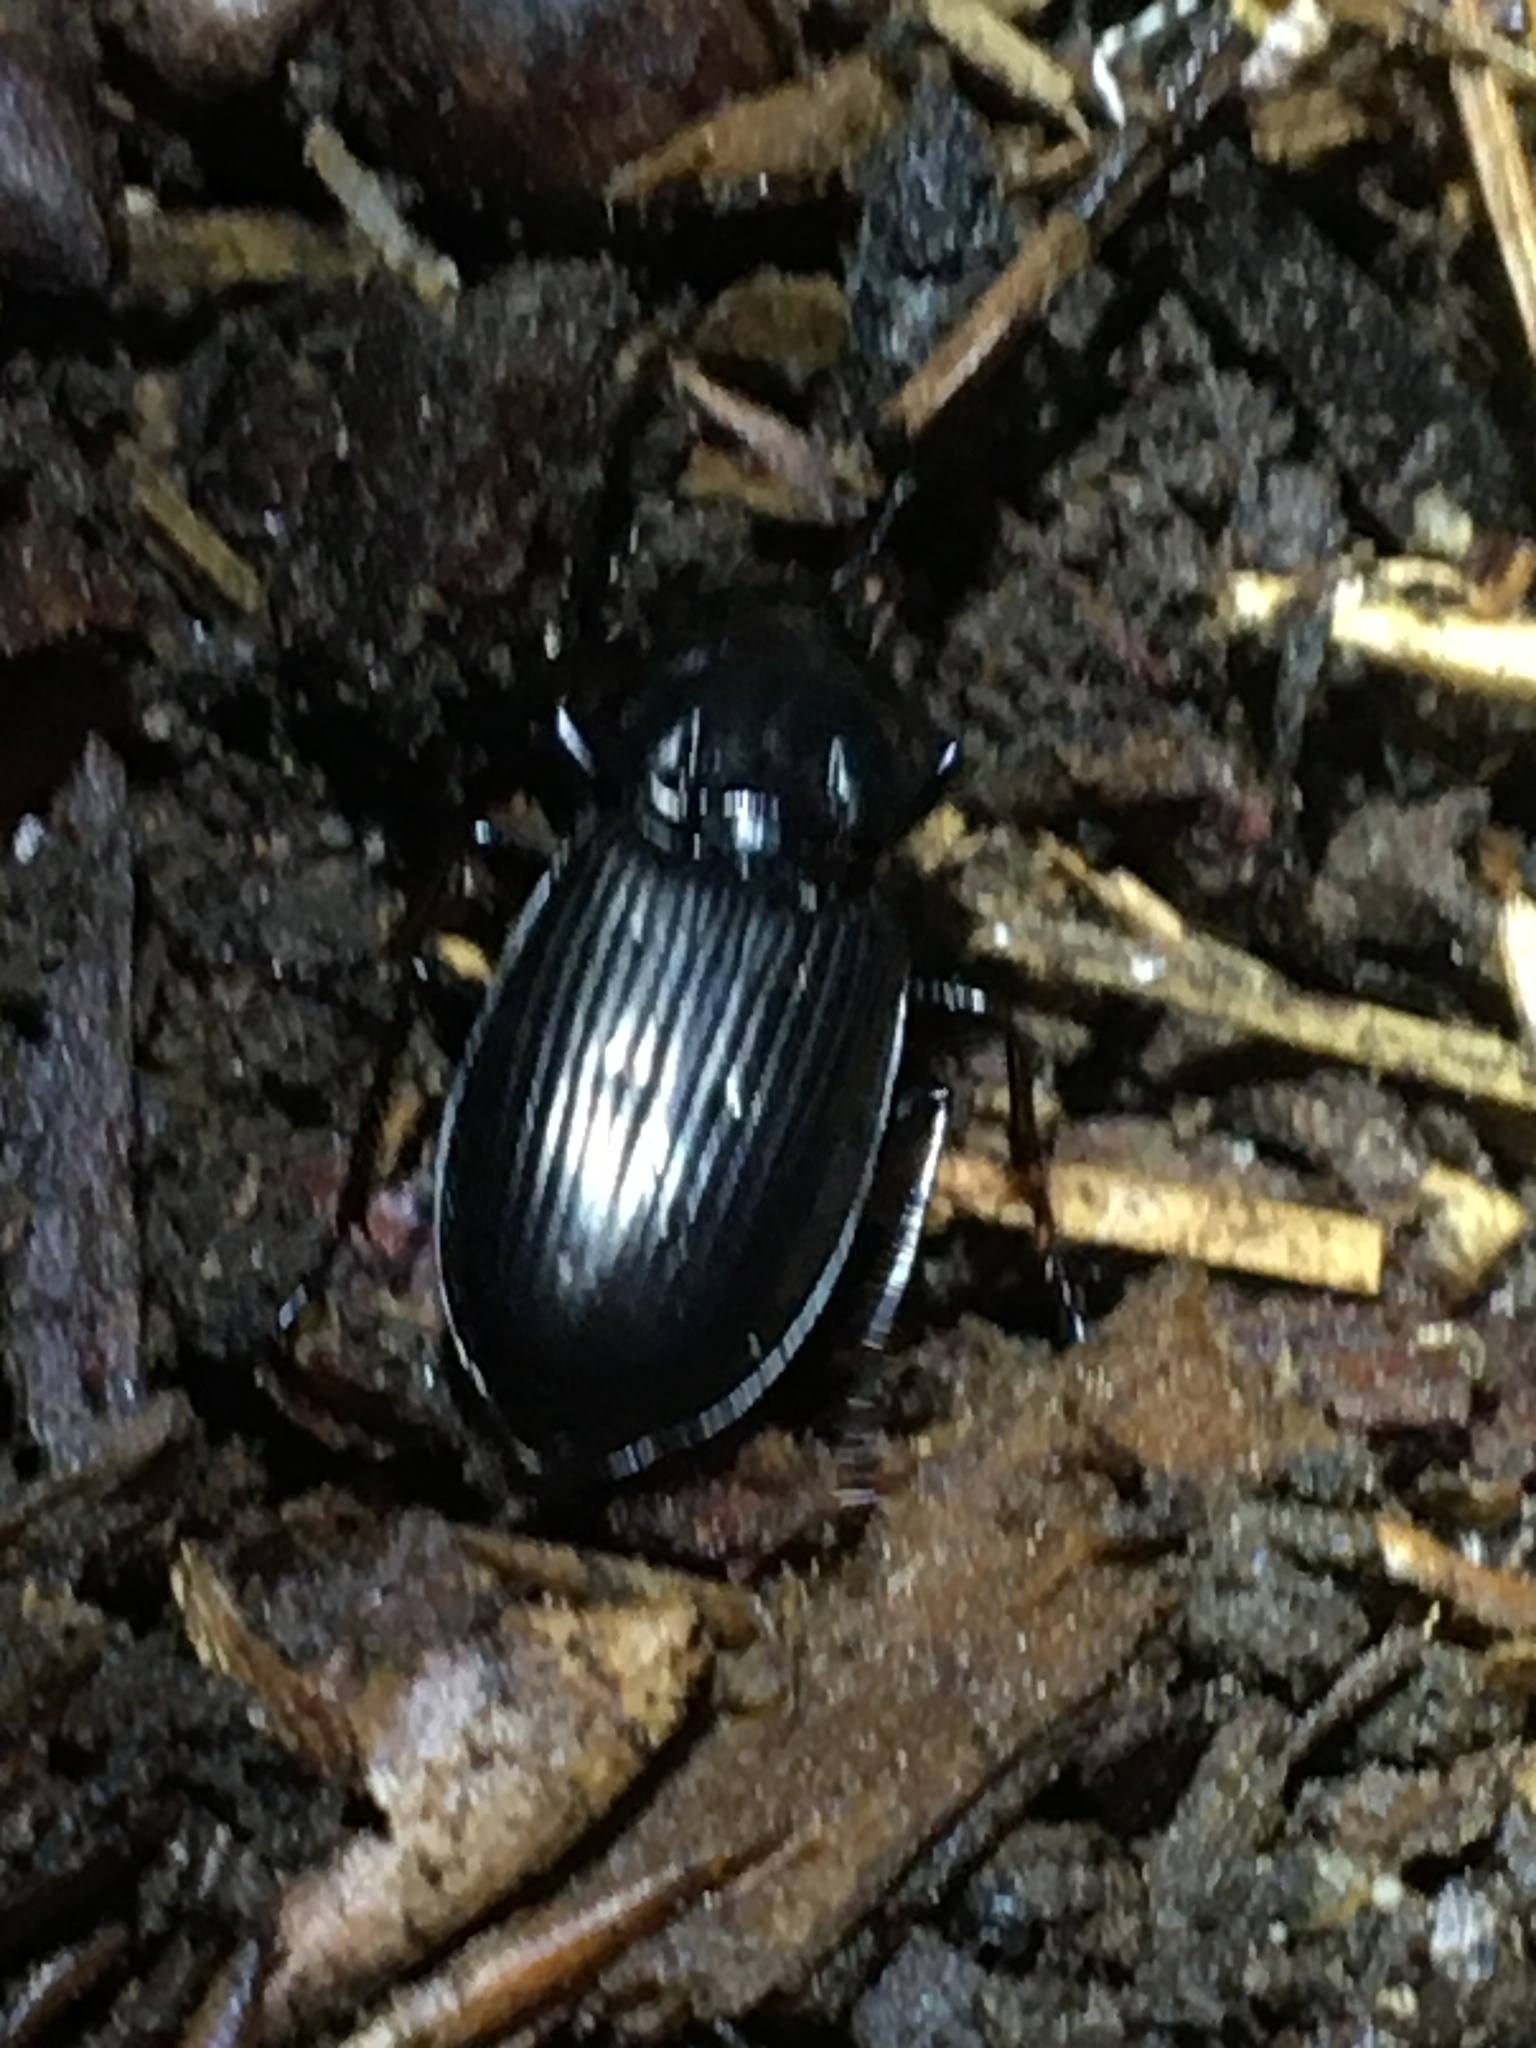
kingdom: Animalia
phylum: Arthropoda
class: Insecta
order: Coleoptera
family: Carabidae
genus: Pterostichus
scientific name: Pterostichus mutus
